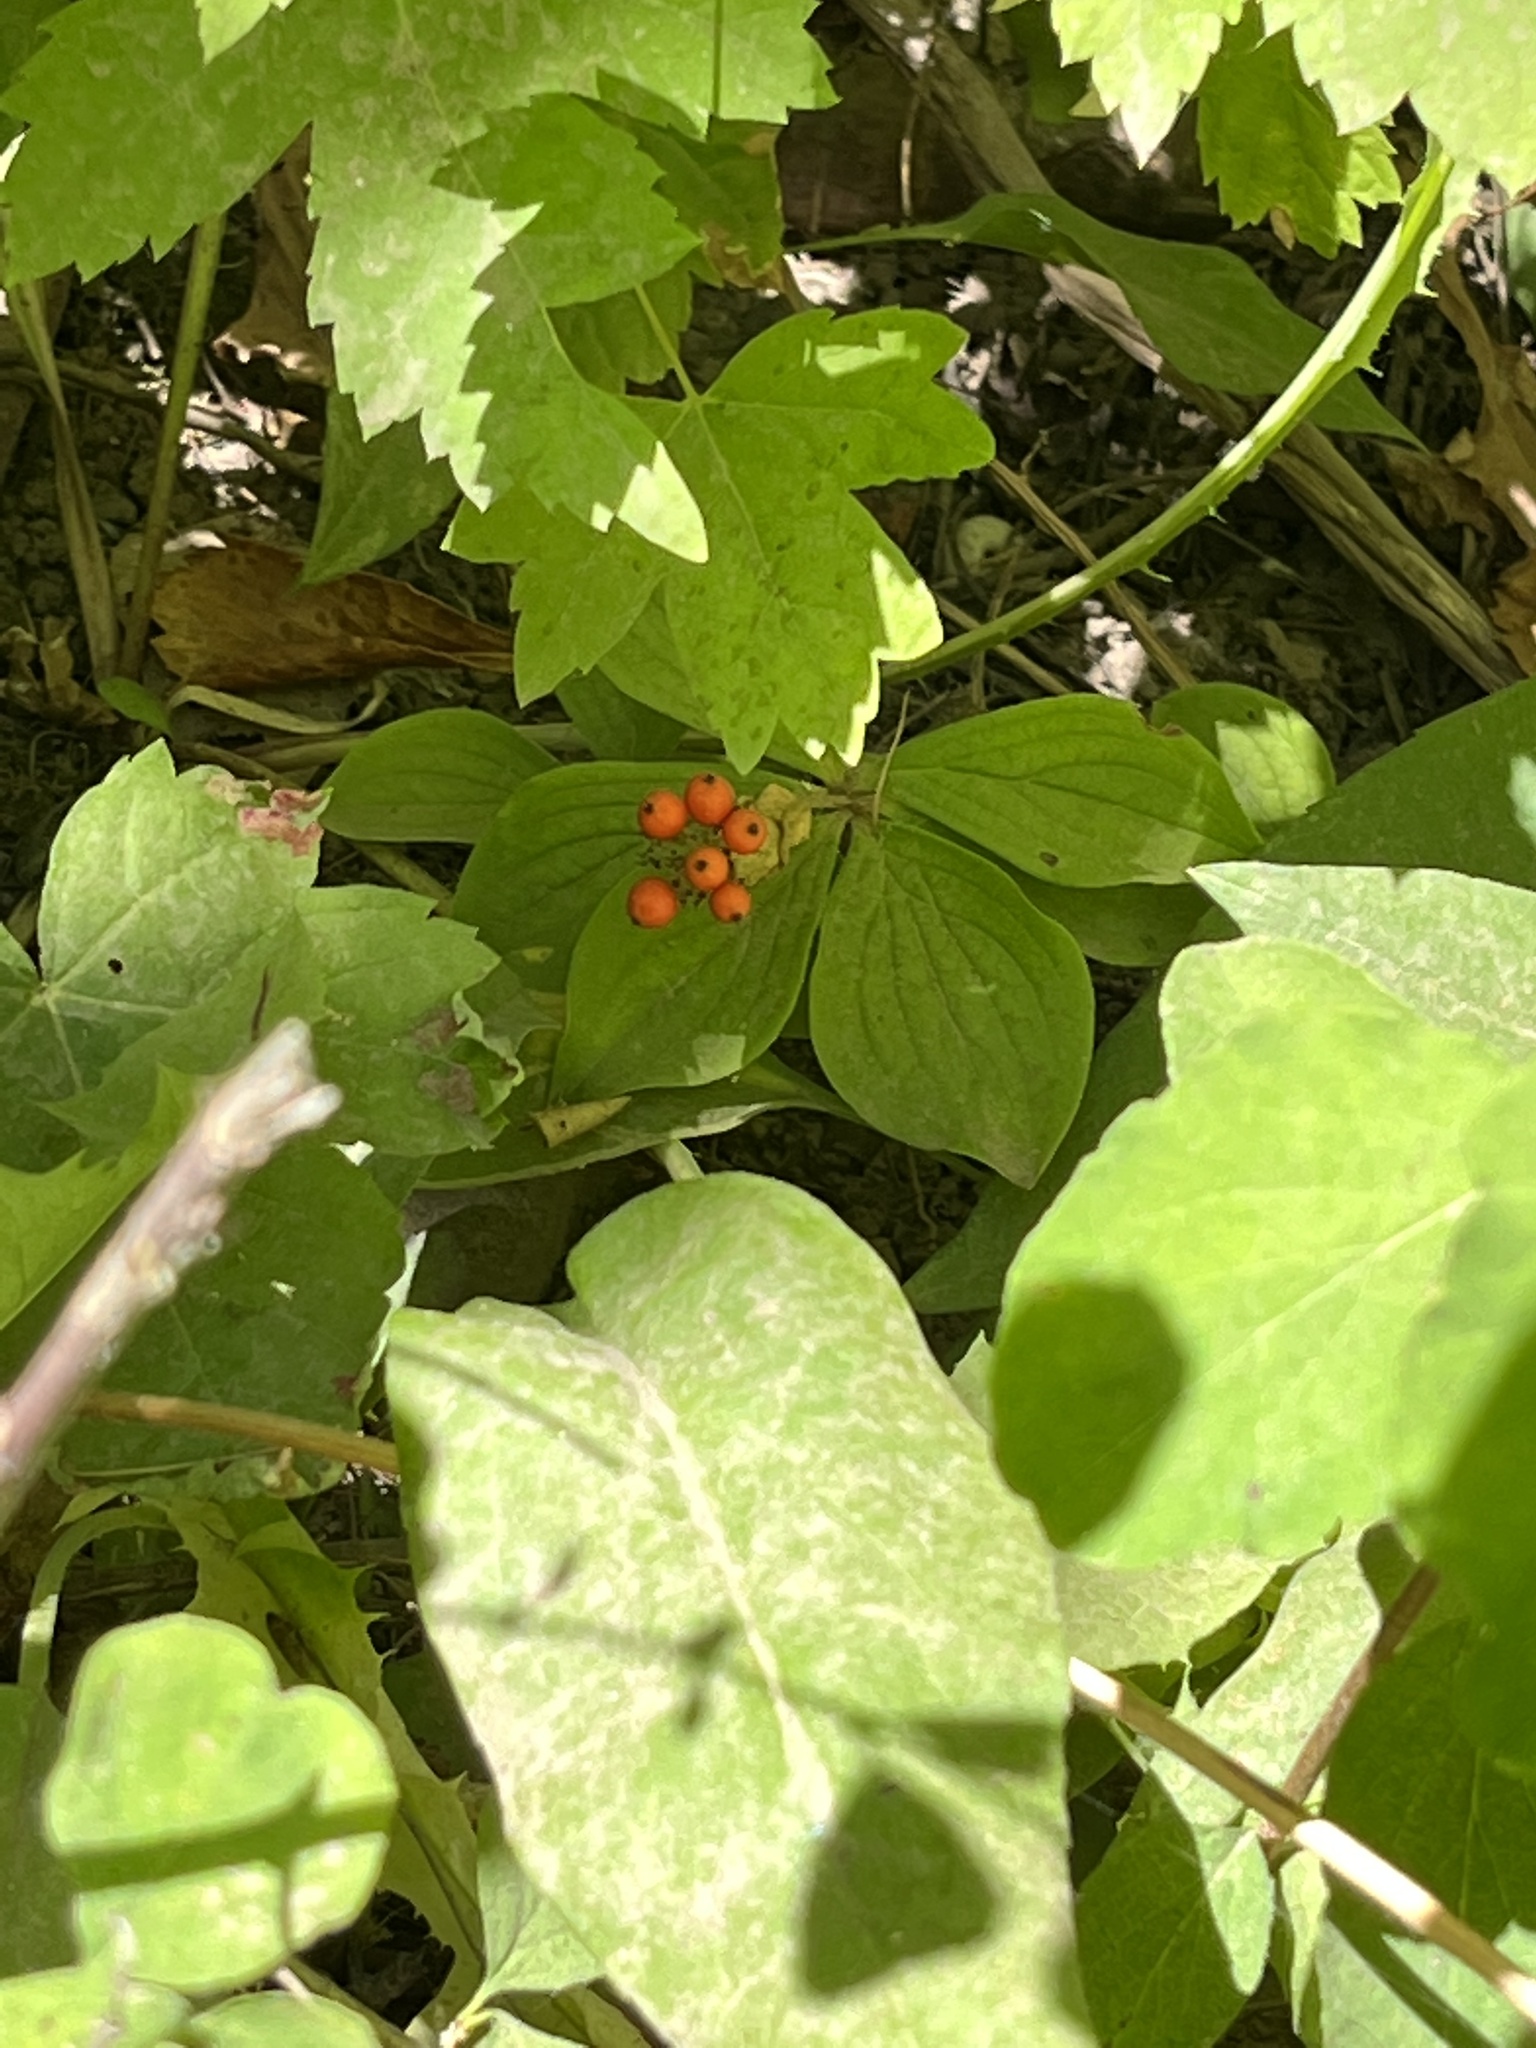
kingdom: Plantae
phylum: Tracheophyta
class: Magnoliopsida
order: Cornales
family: Cornaceae
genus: Cornus
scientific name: Cornus canadensis
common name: Creeping dogwood
